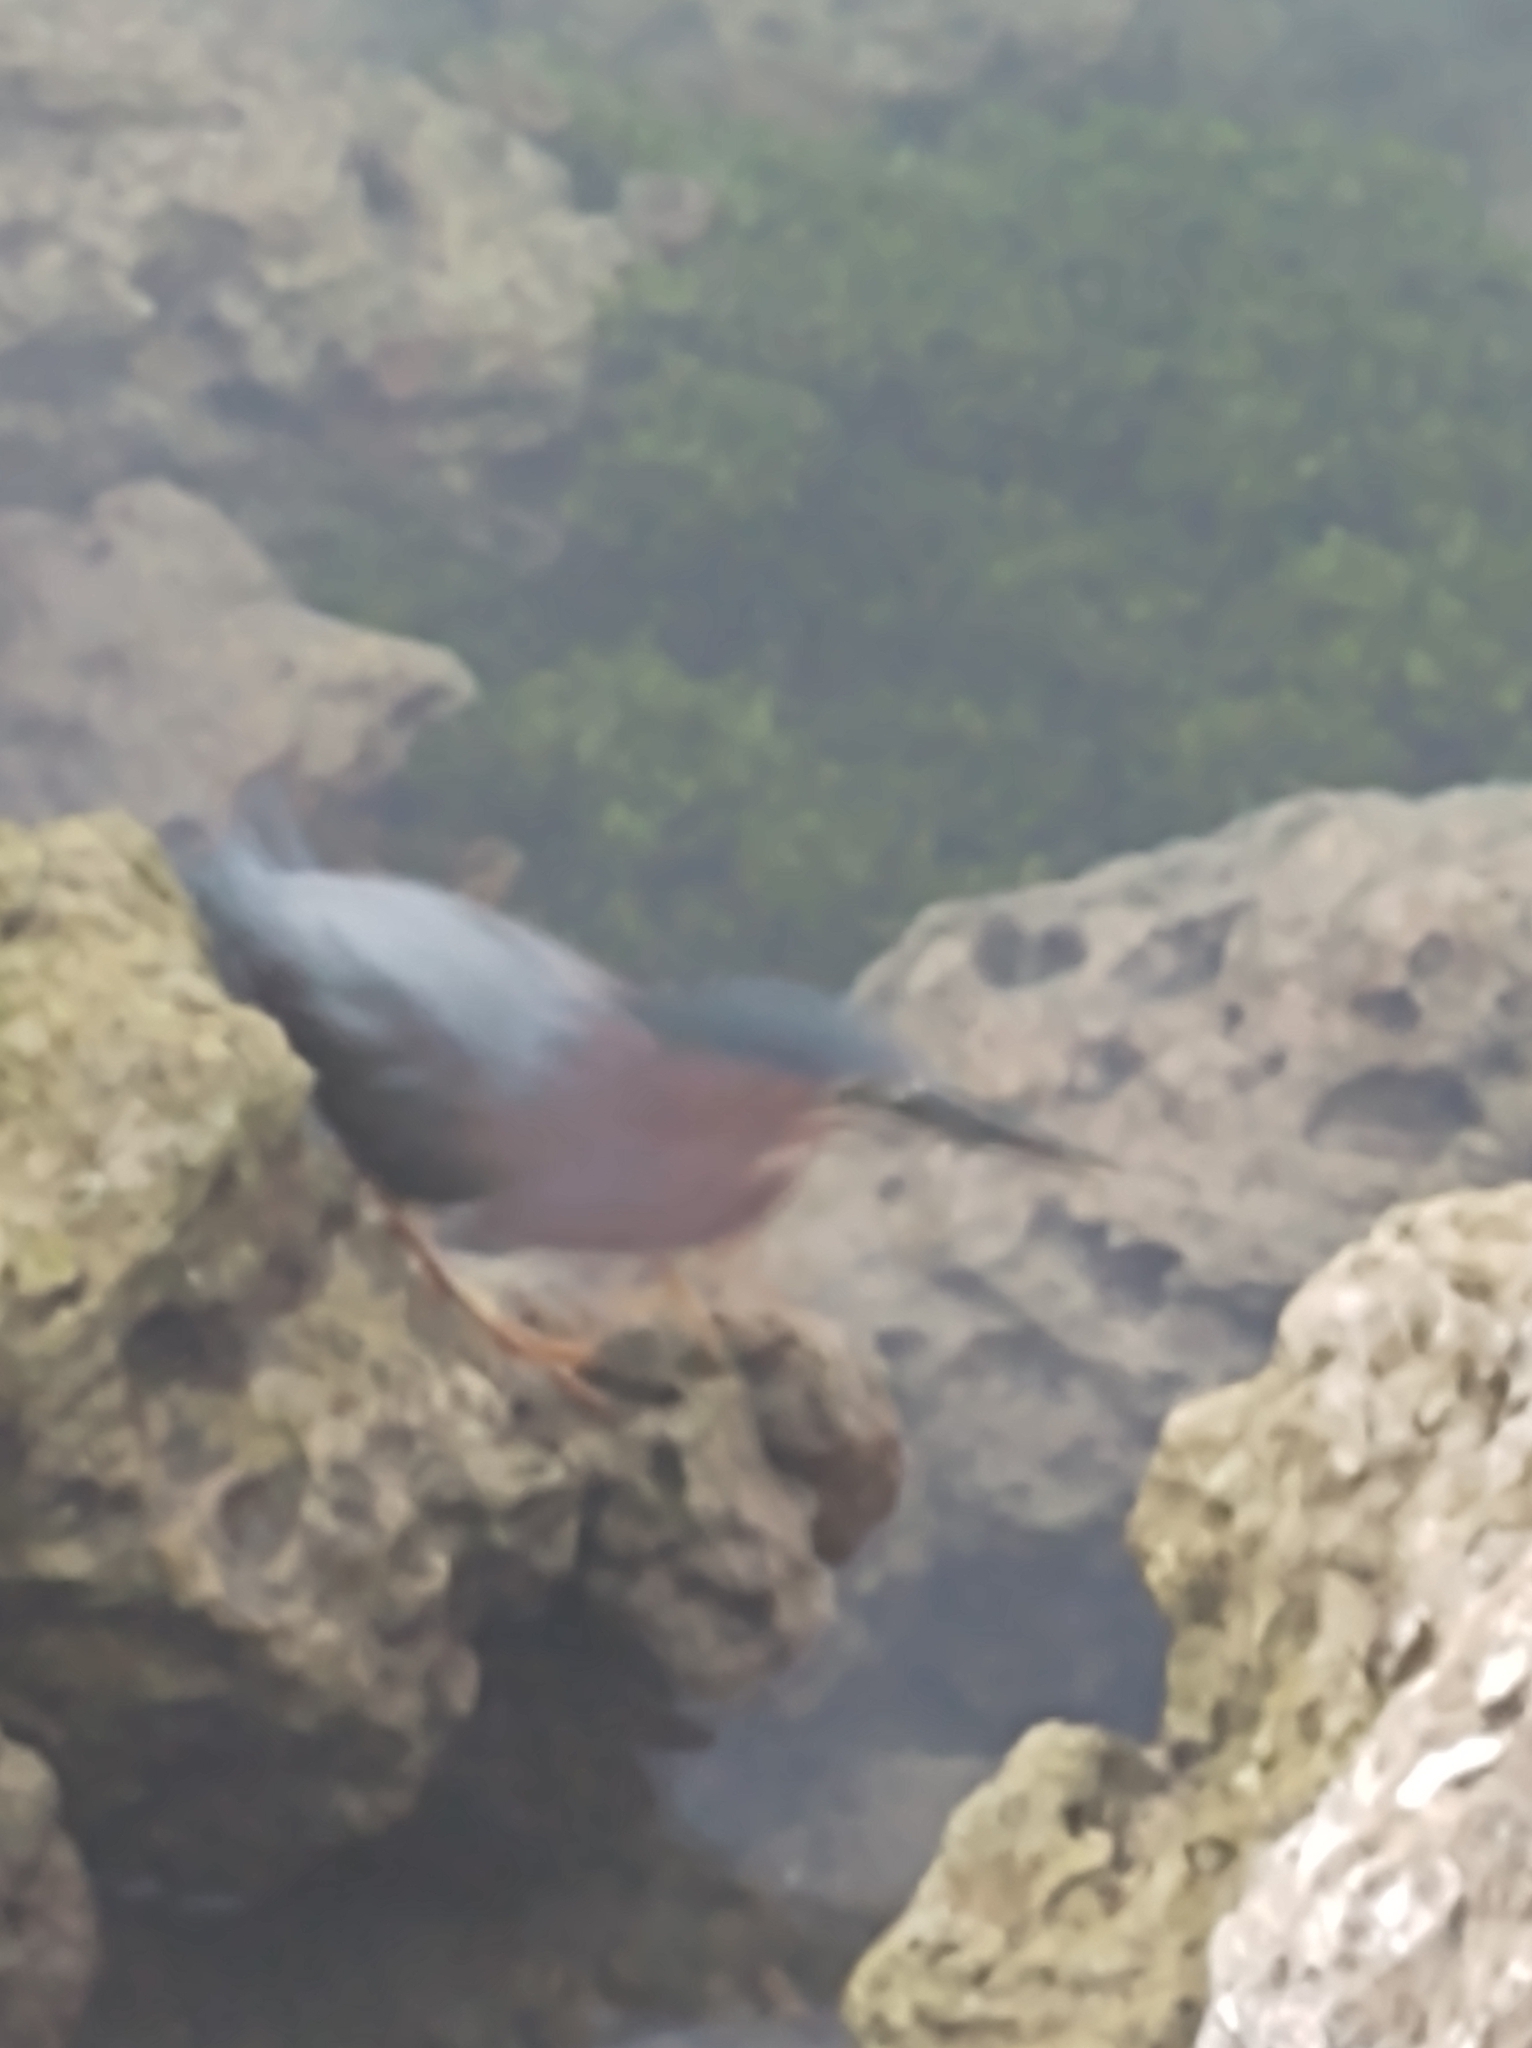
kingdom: Animalia
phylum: Chordata
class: Aves
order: Pelecaniformes
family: Ardeidae
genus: Butorides
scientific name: Butorides virescens
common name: Green heron
